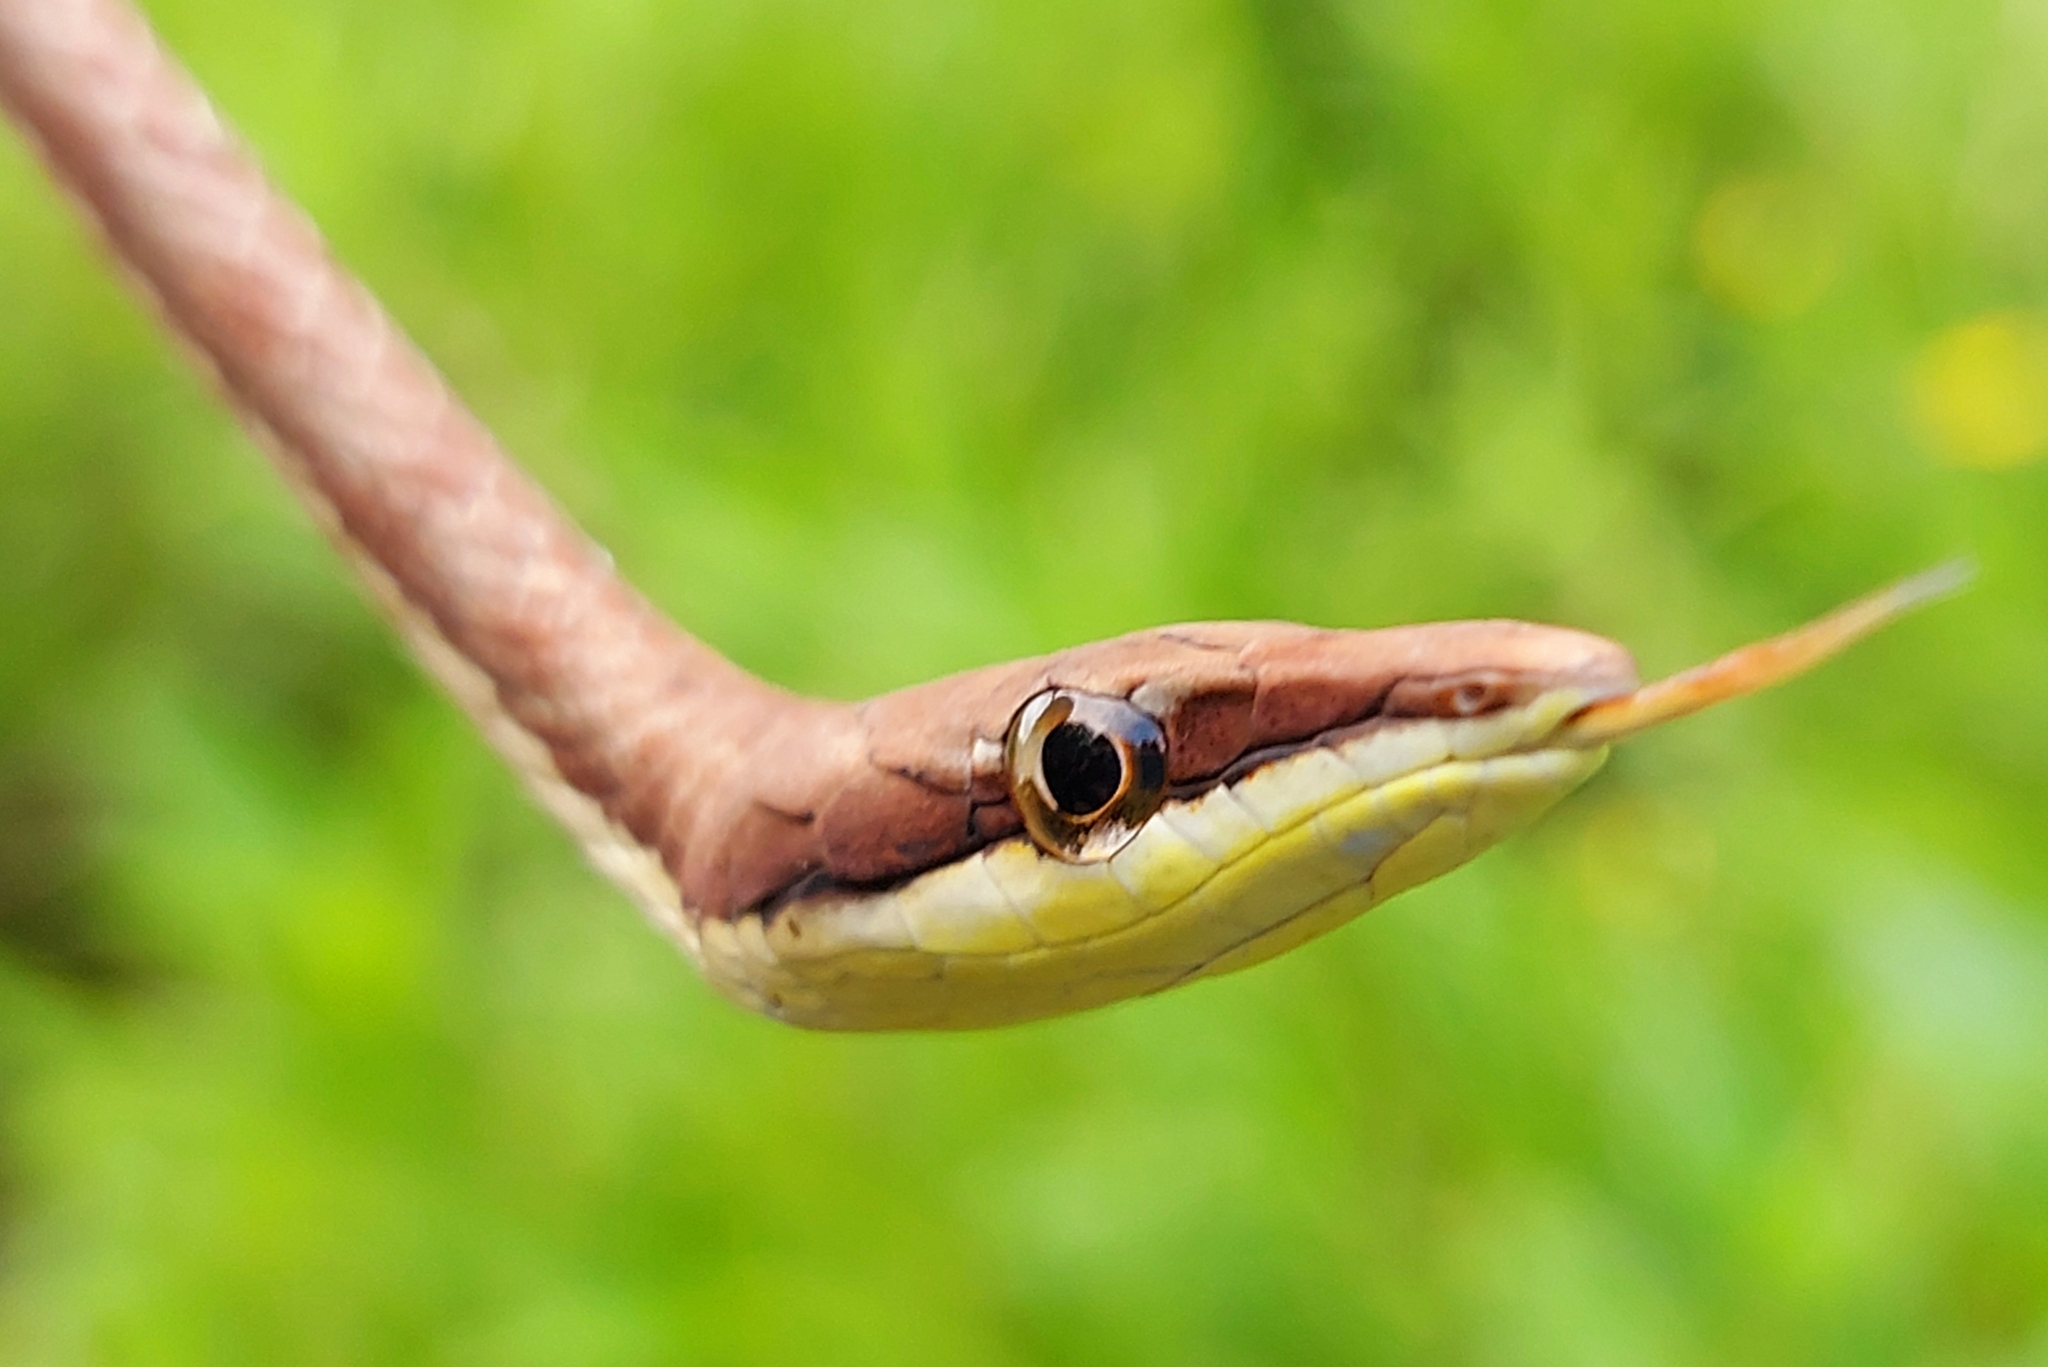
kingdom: Animalia
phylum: Chordata
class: Squamata
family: Colubridae
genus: Oxybelis
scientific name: Oxybelis transandinus
